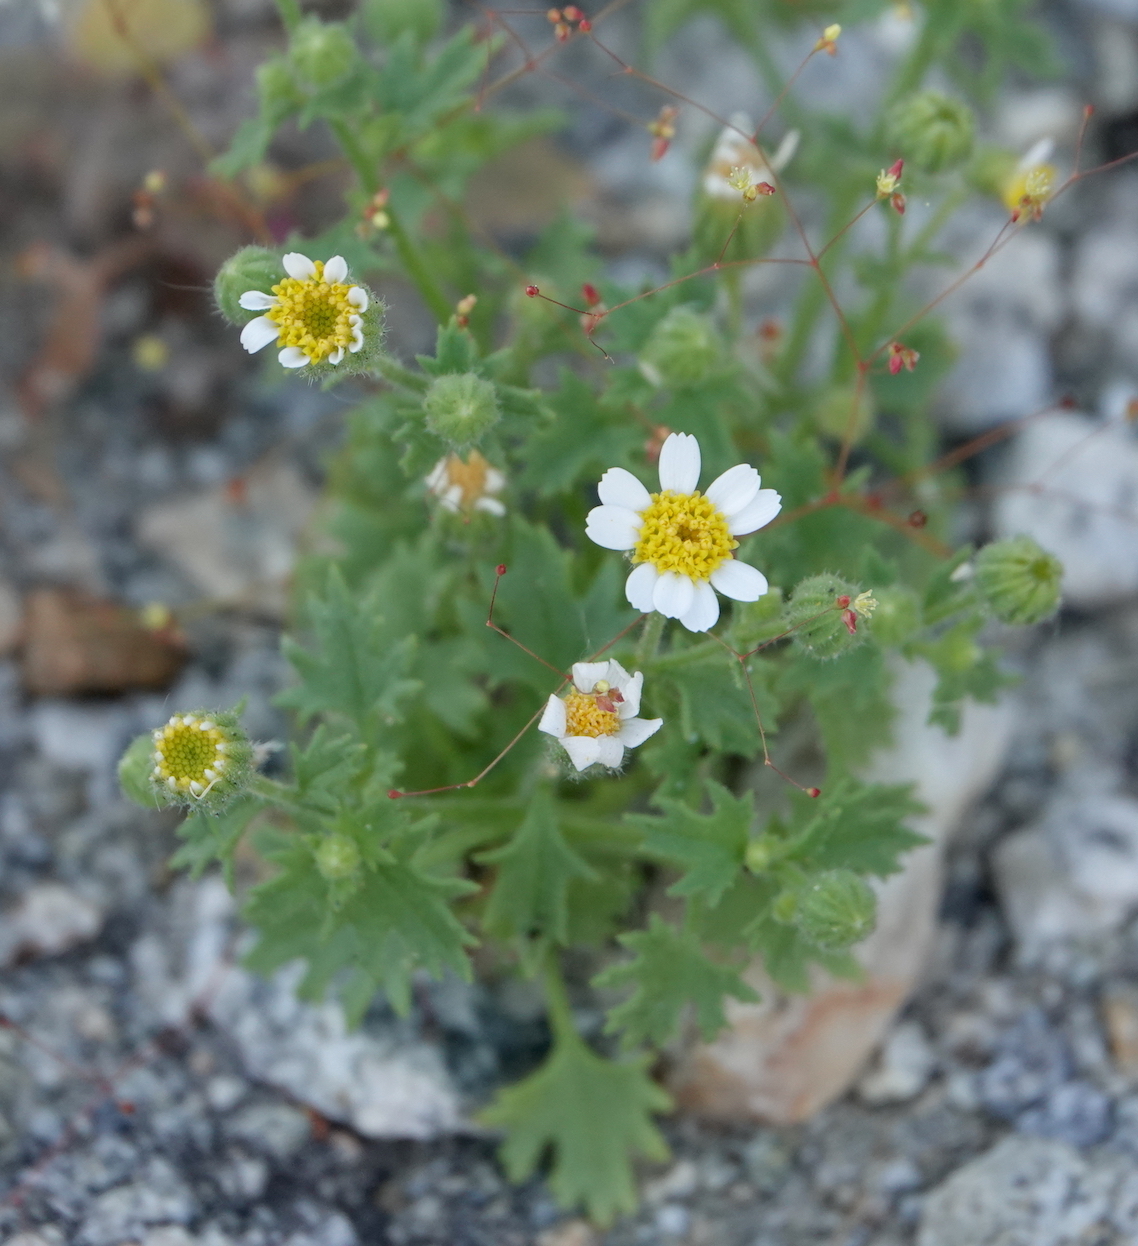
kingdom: Plantae
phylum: Tracheophyta
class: Magnoliopsida
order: Asterales
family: Asteraceae
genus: Laphamia
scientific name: Laphamia emoryi
